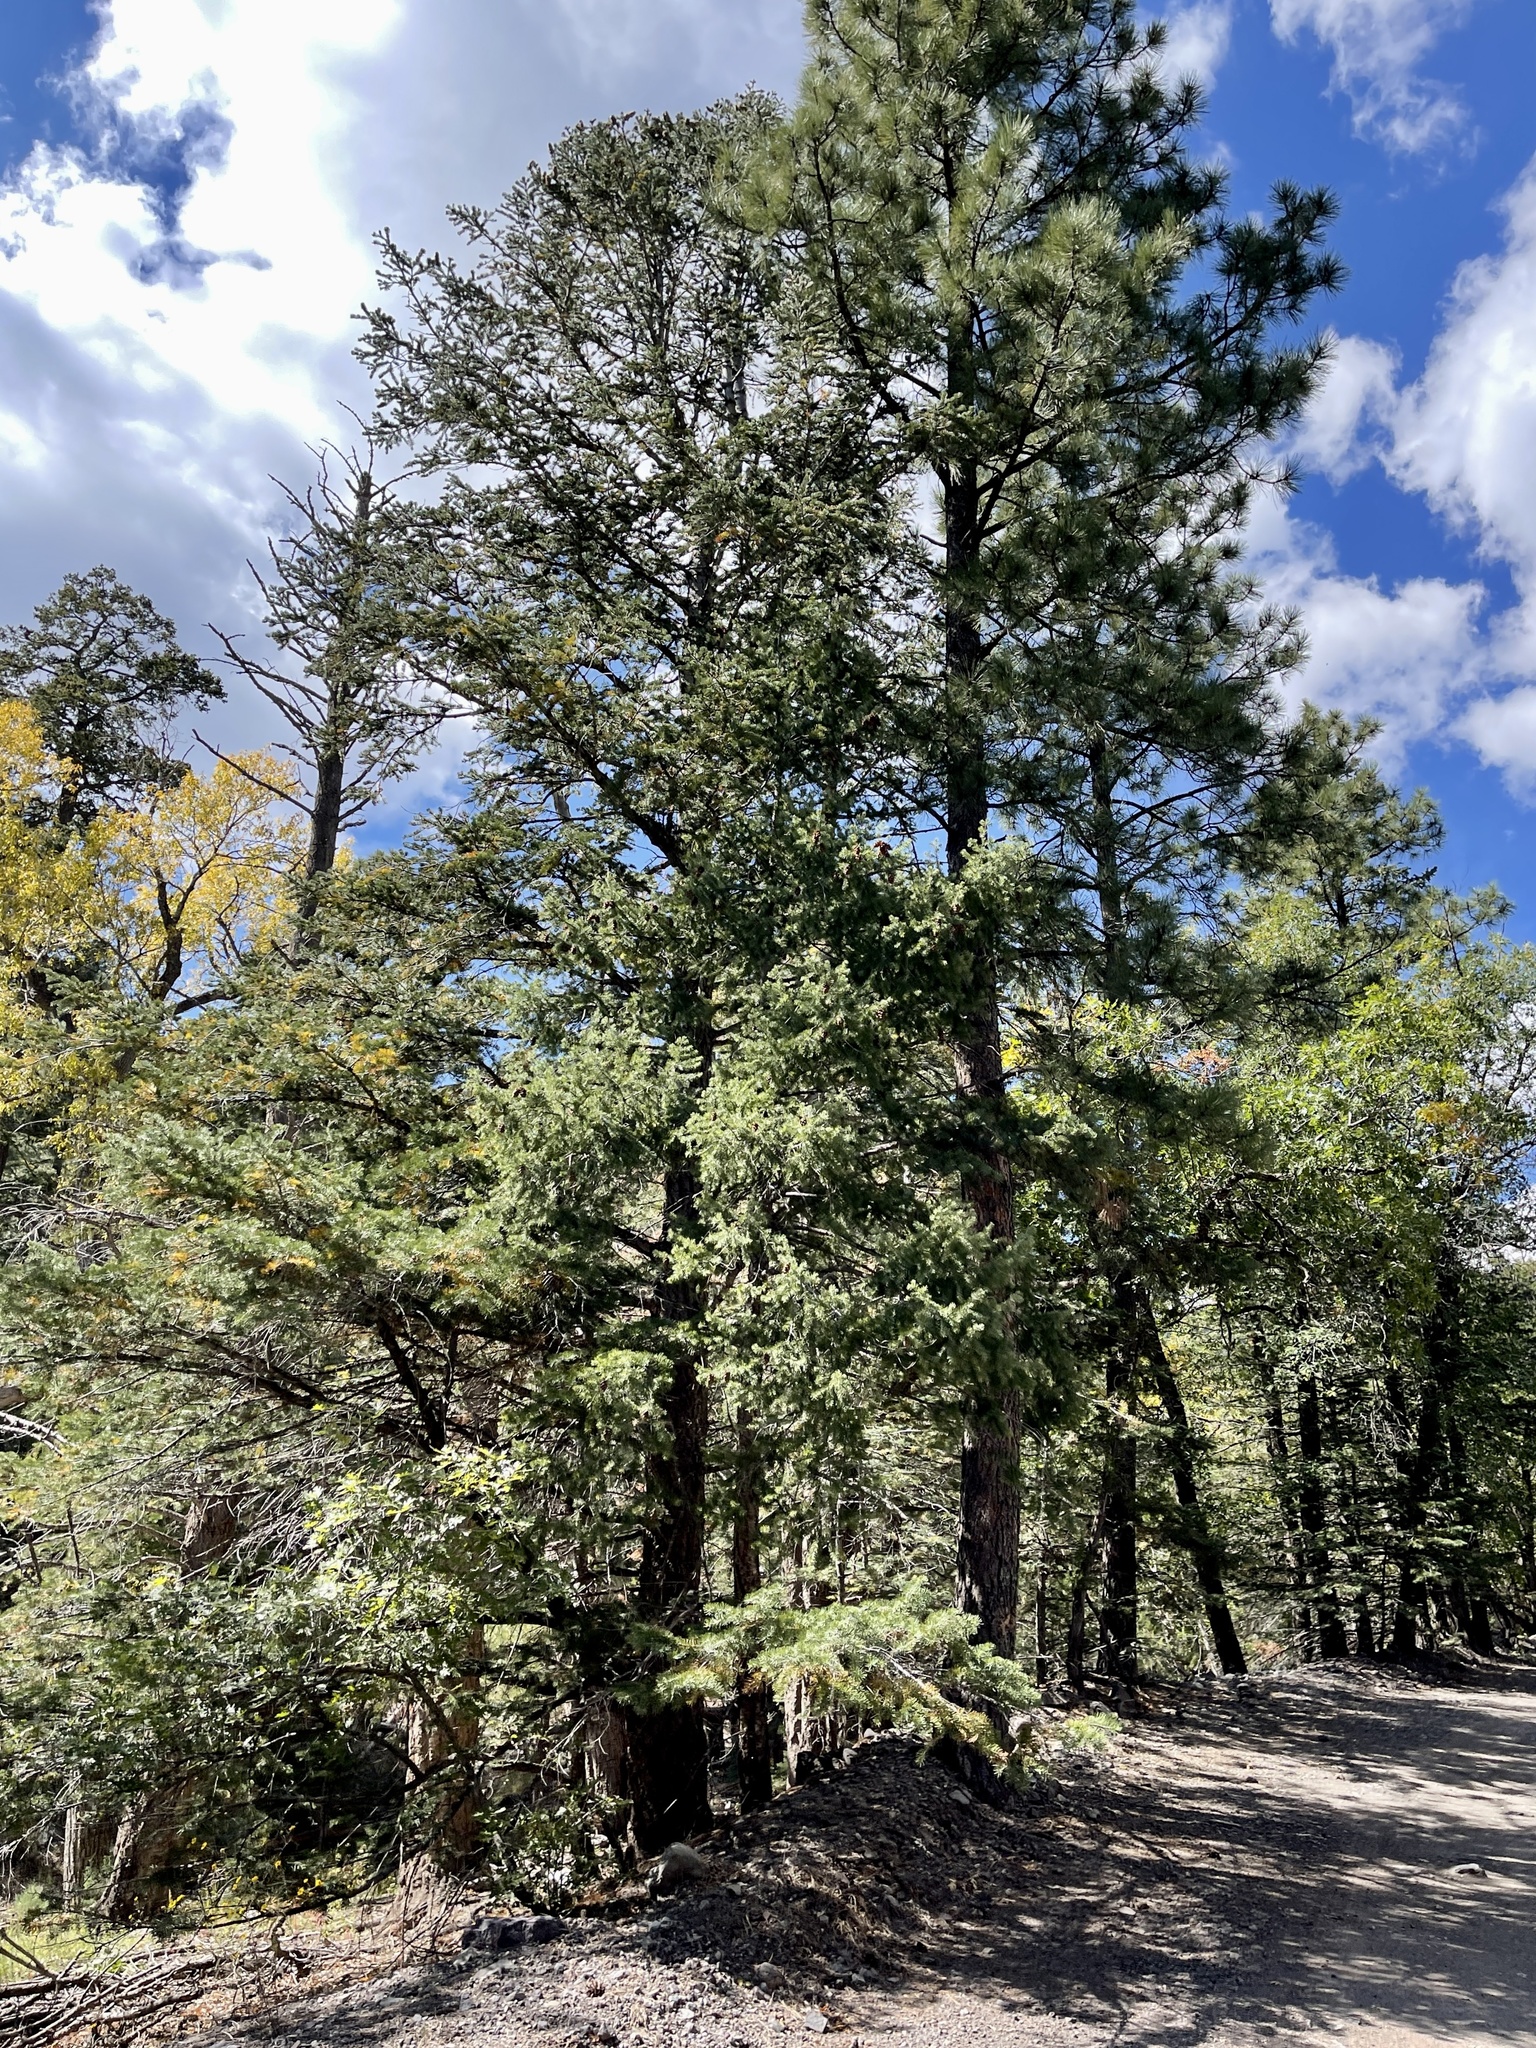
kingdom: Plantae
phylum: Tracheophyta
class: Pinopsida
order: Pinales
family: Pinaceae
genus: Pseudotsuga
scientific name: Pseudotsuga menziesii
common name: Douglas fir
